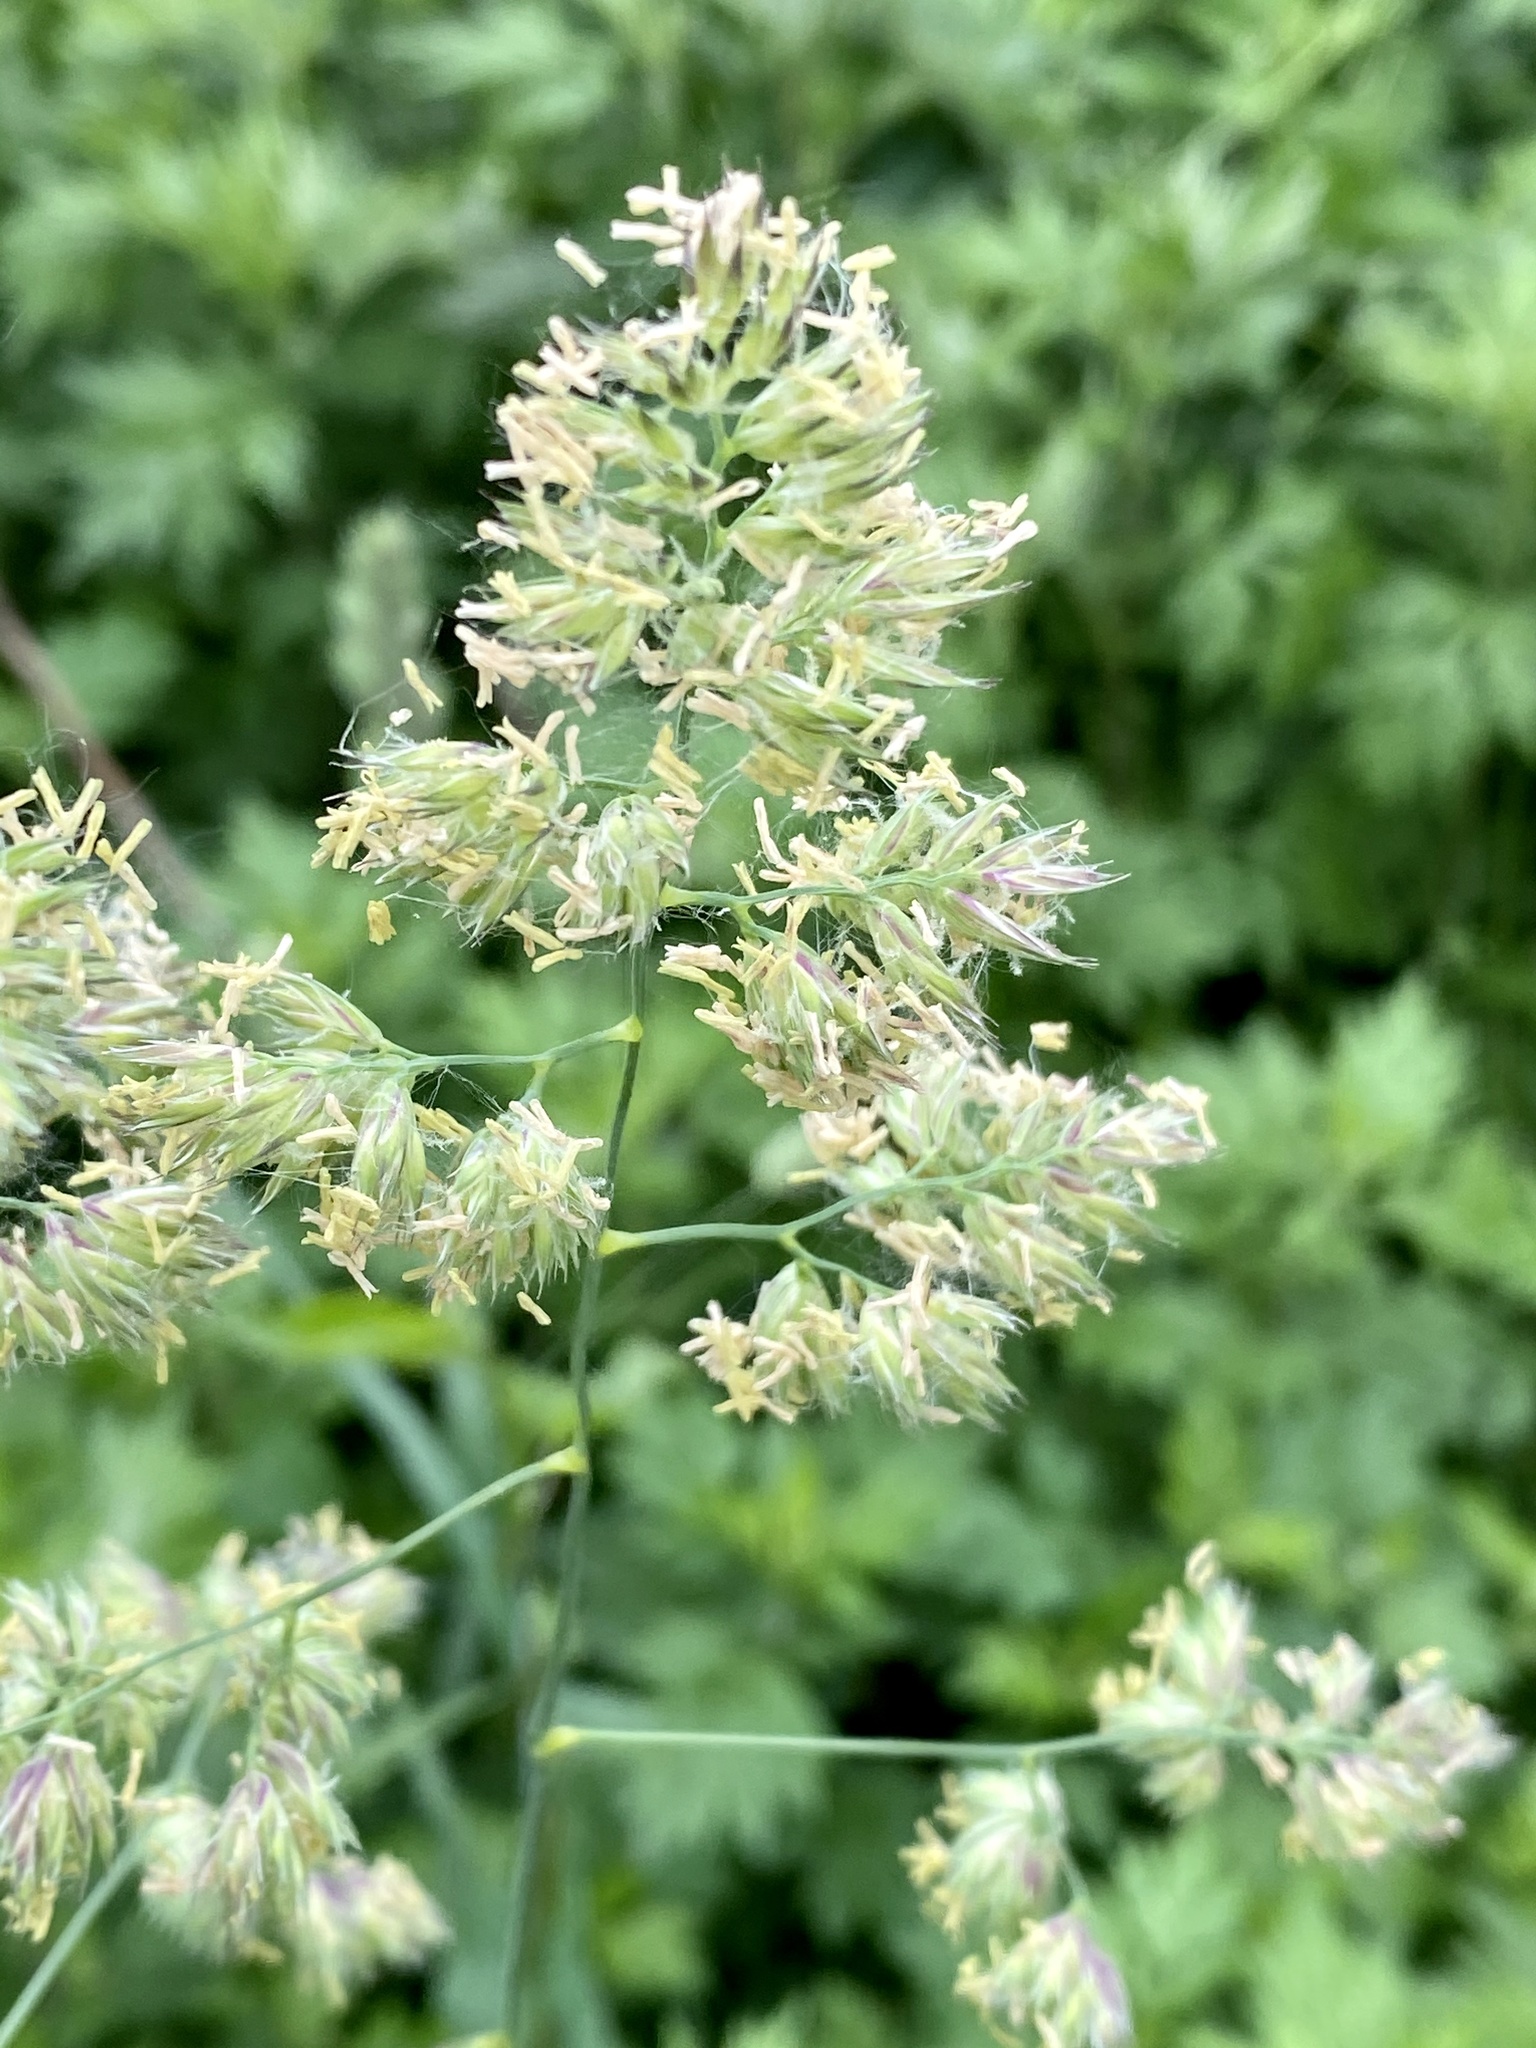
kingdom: Plantae
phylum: Tracheophyta
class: Liliopsida
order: Poales
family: Poaceae
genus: Dactylis
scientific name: Dactylis glomerata
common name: Orchardgrass
